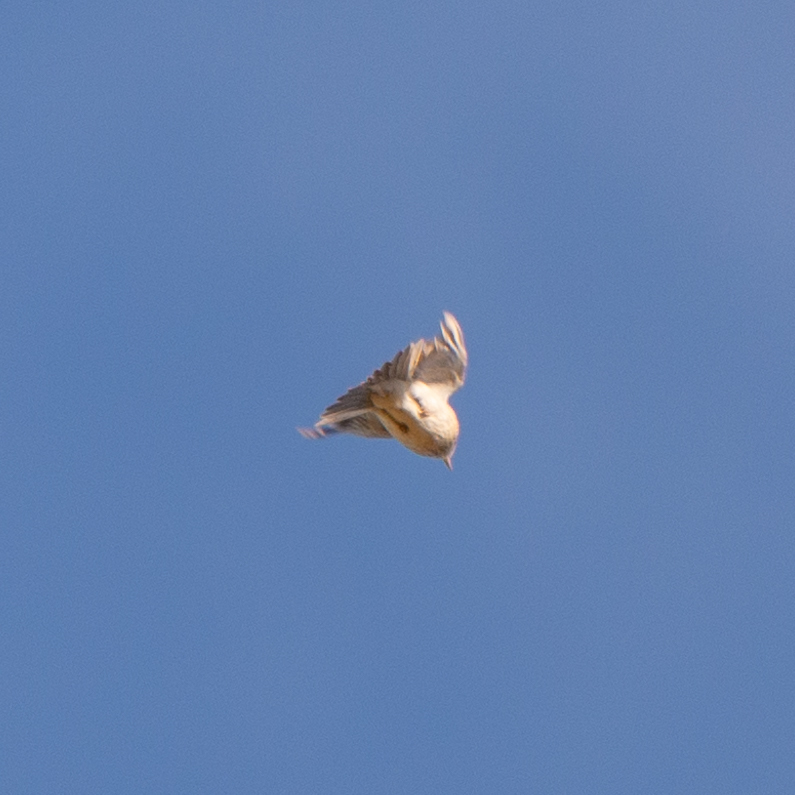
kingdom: Animalia
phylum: Chordata
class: Aves
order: Passeriformes
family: Alaudidae
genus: Alauda
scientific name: Alauda arvensis
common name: Eurasian skylark
